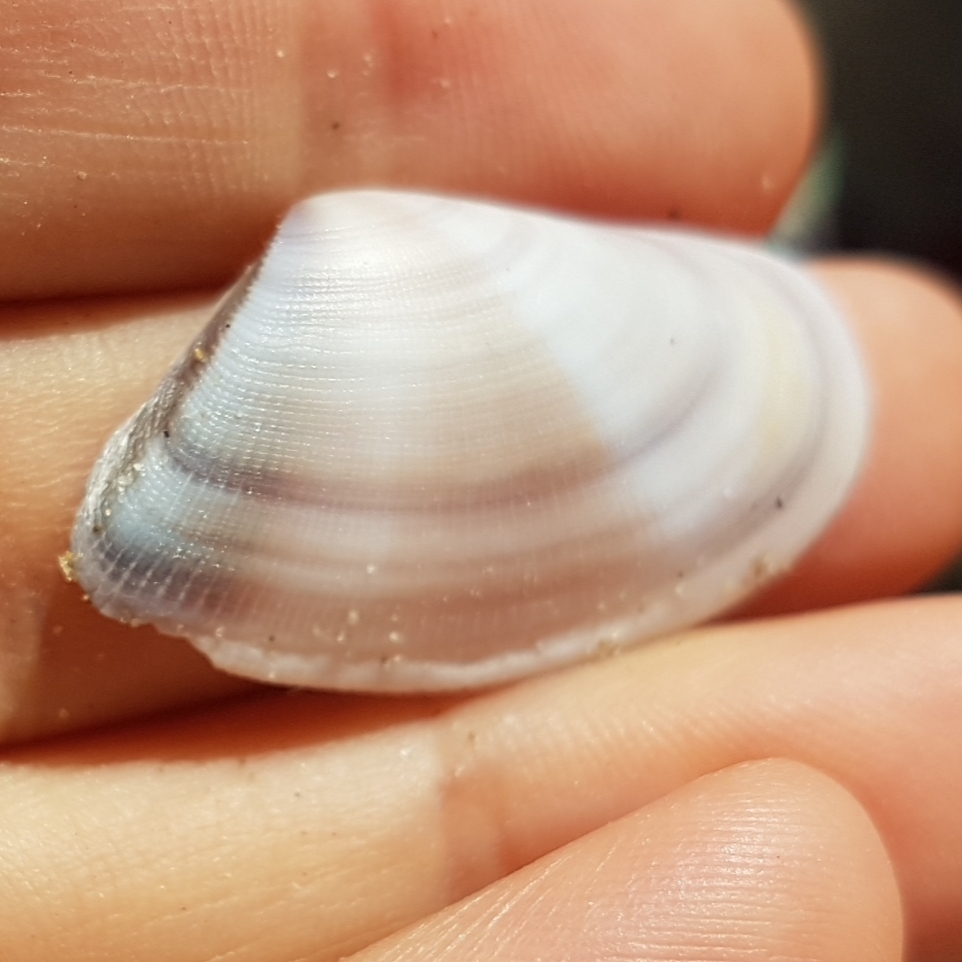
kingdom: Animalia
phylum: Mollusca
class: Bivalvia
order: Cardiida
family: Donacidae
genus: Donax
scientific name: Donax semistriatus
